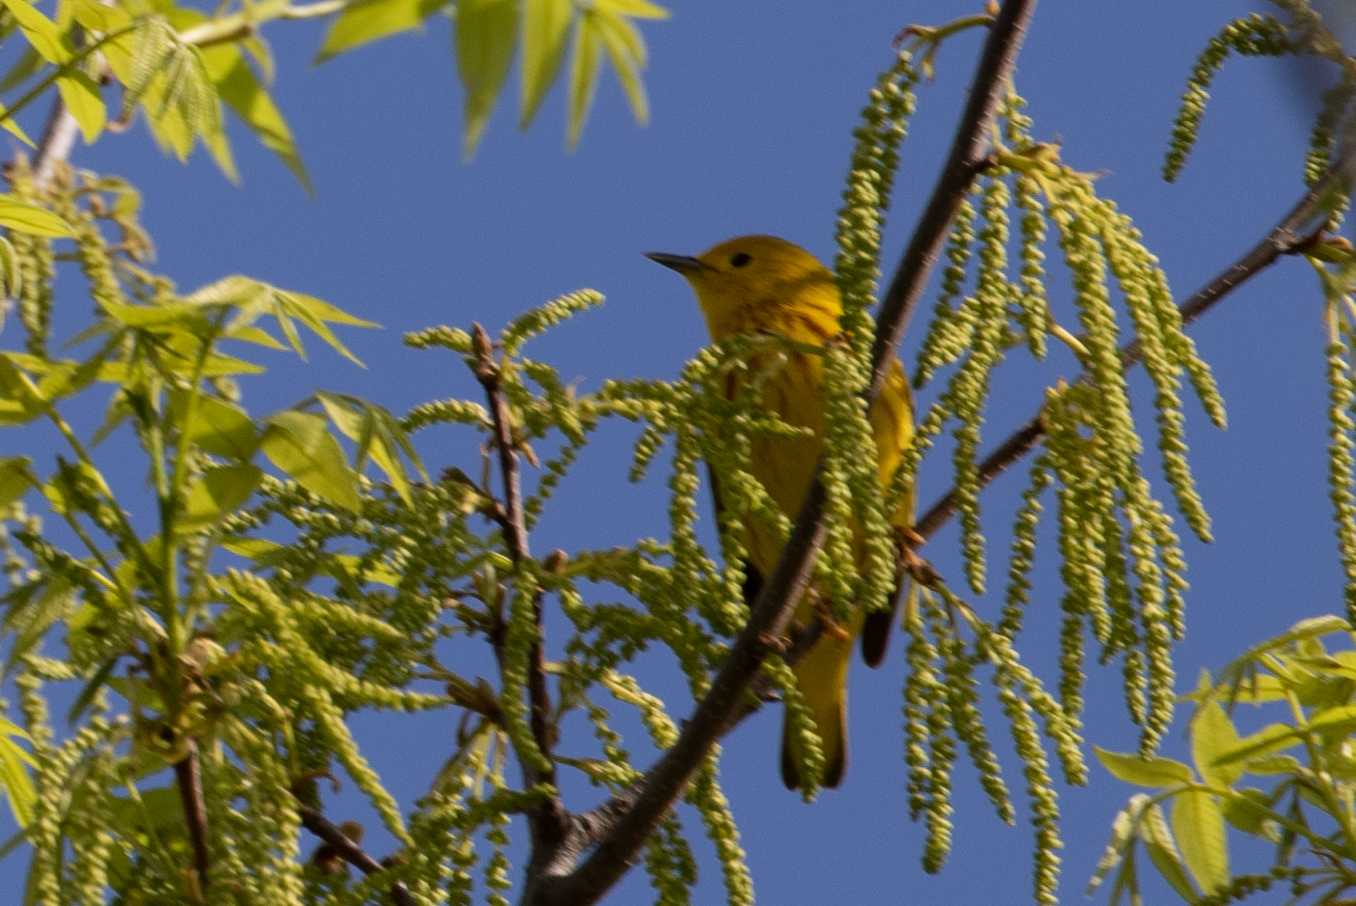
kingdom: Animalia
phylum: Chordata
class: Aves
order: Passeriformes
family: Parulidae
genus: Setophaga
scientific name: Setophaga petechia
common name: Yellow warbler
